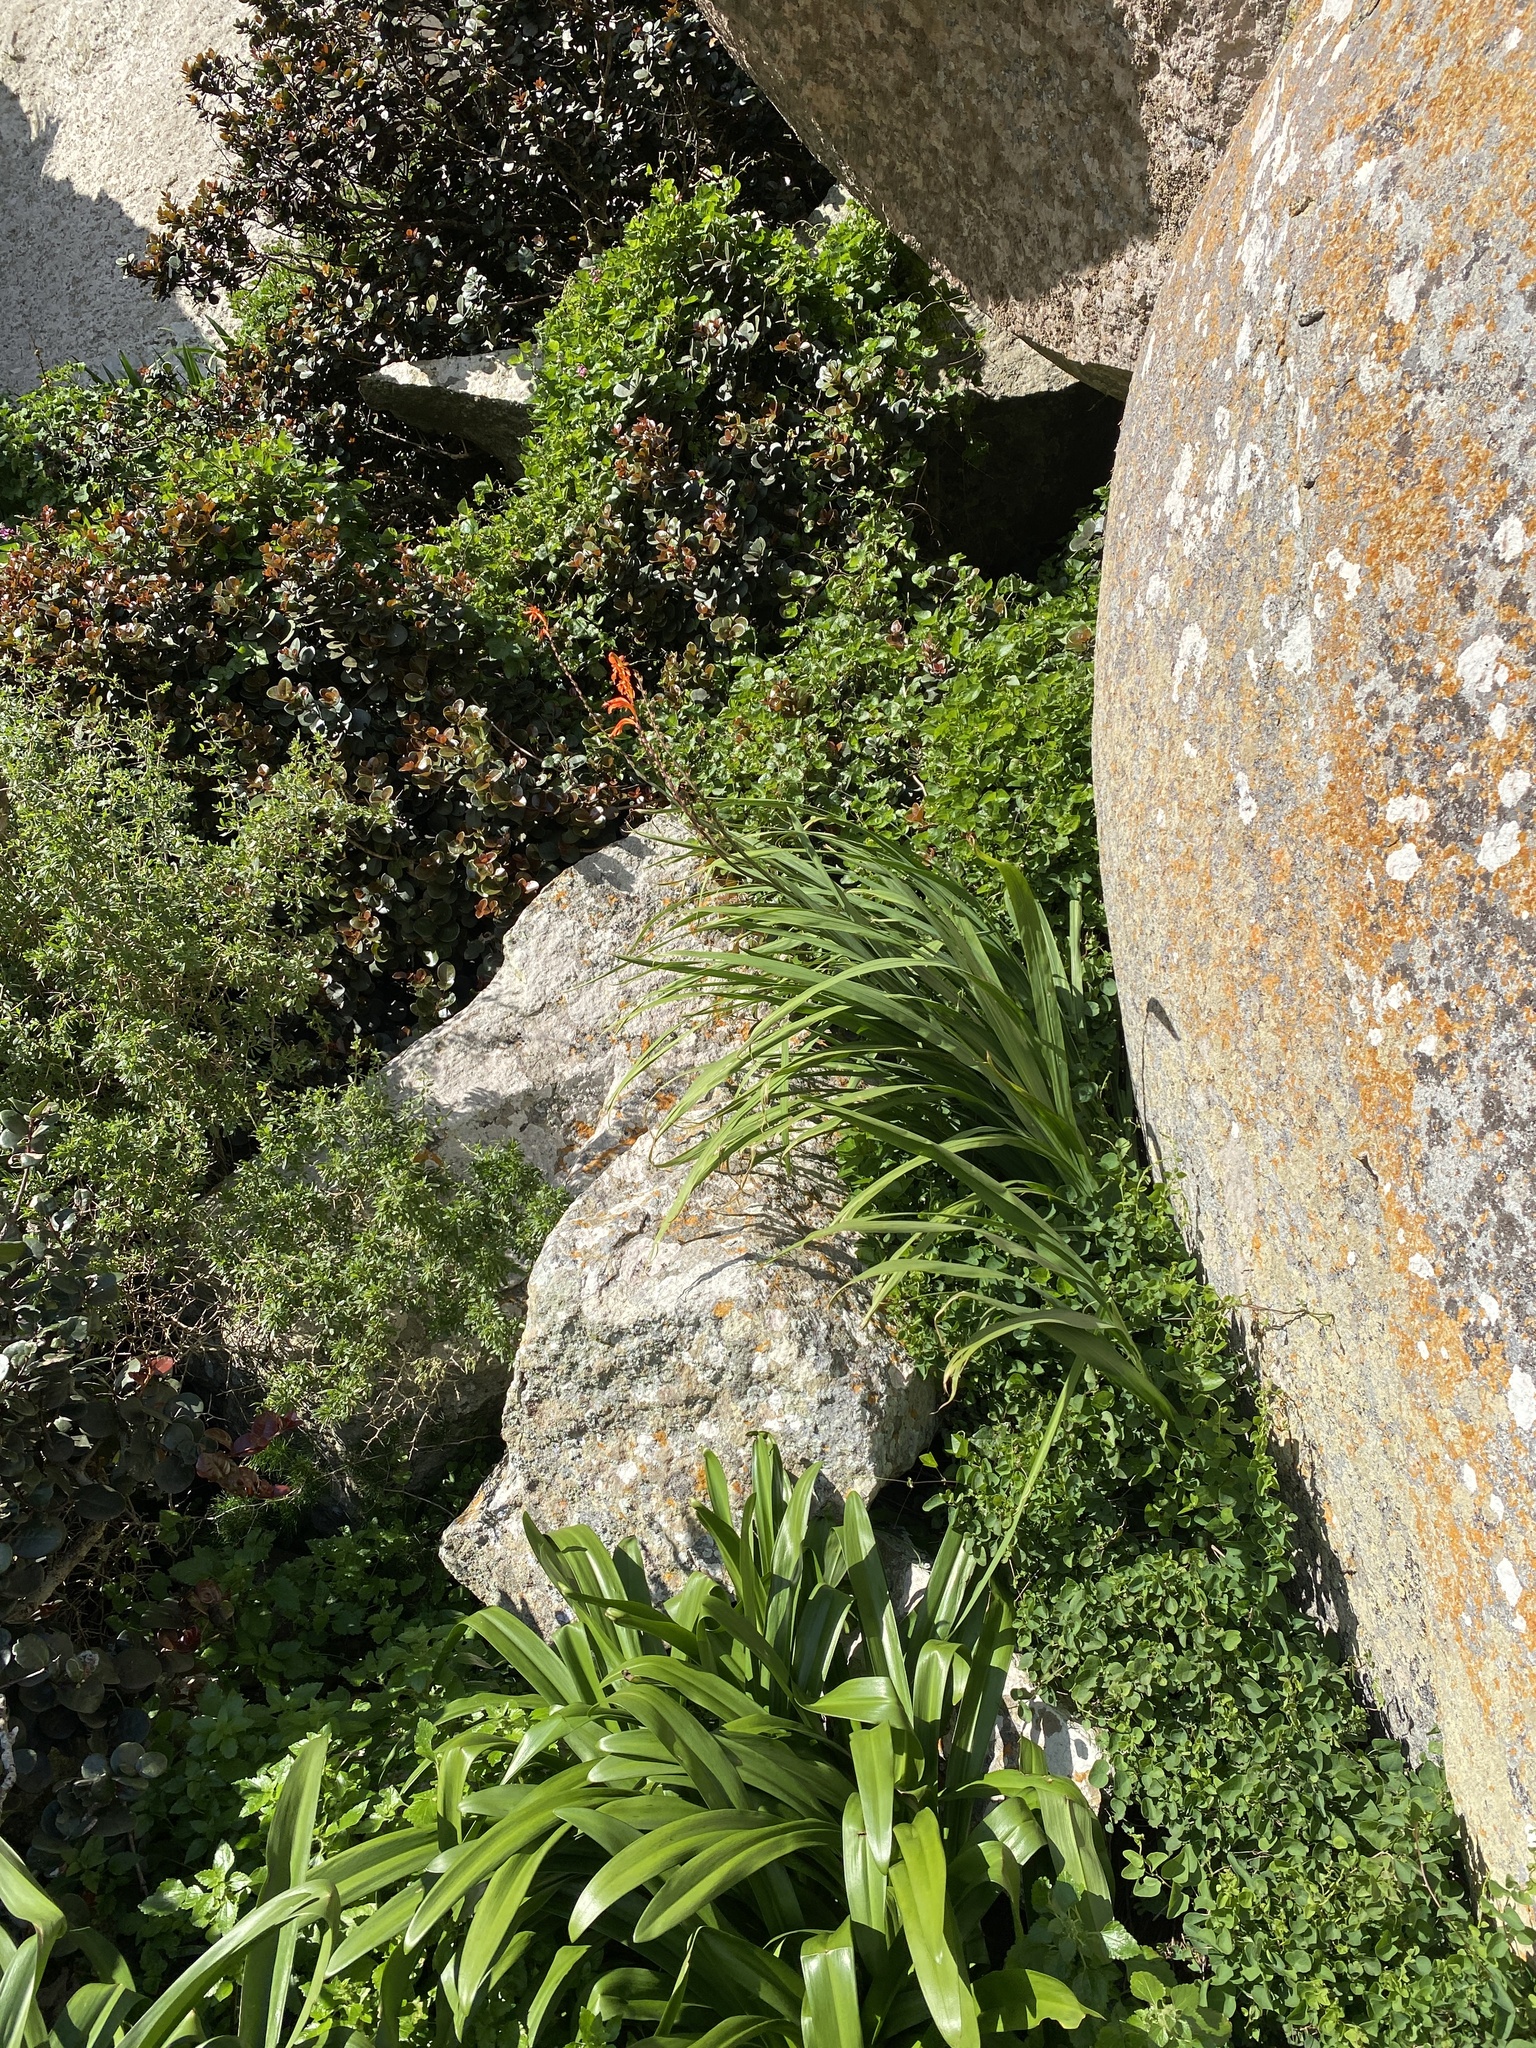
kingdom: Plantae
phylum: Tracheophyta
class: Liliopsida
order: Asparagales
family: Iridaceae
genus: Chasmanthe
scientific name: Chasmanthe floribunda
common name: African cornflag
